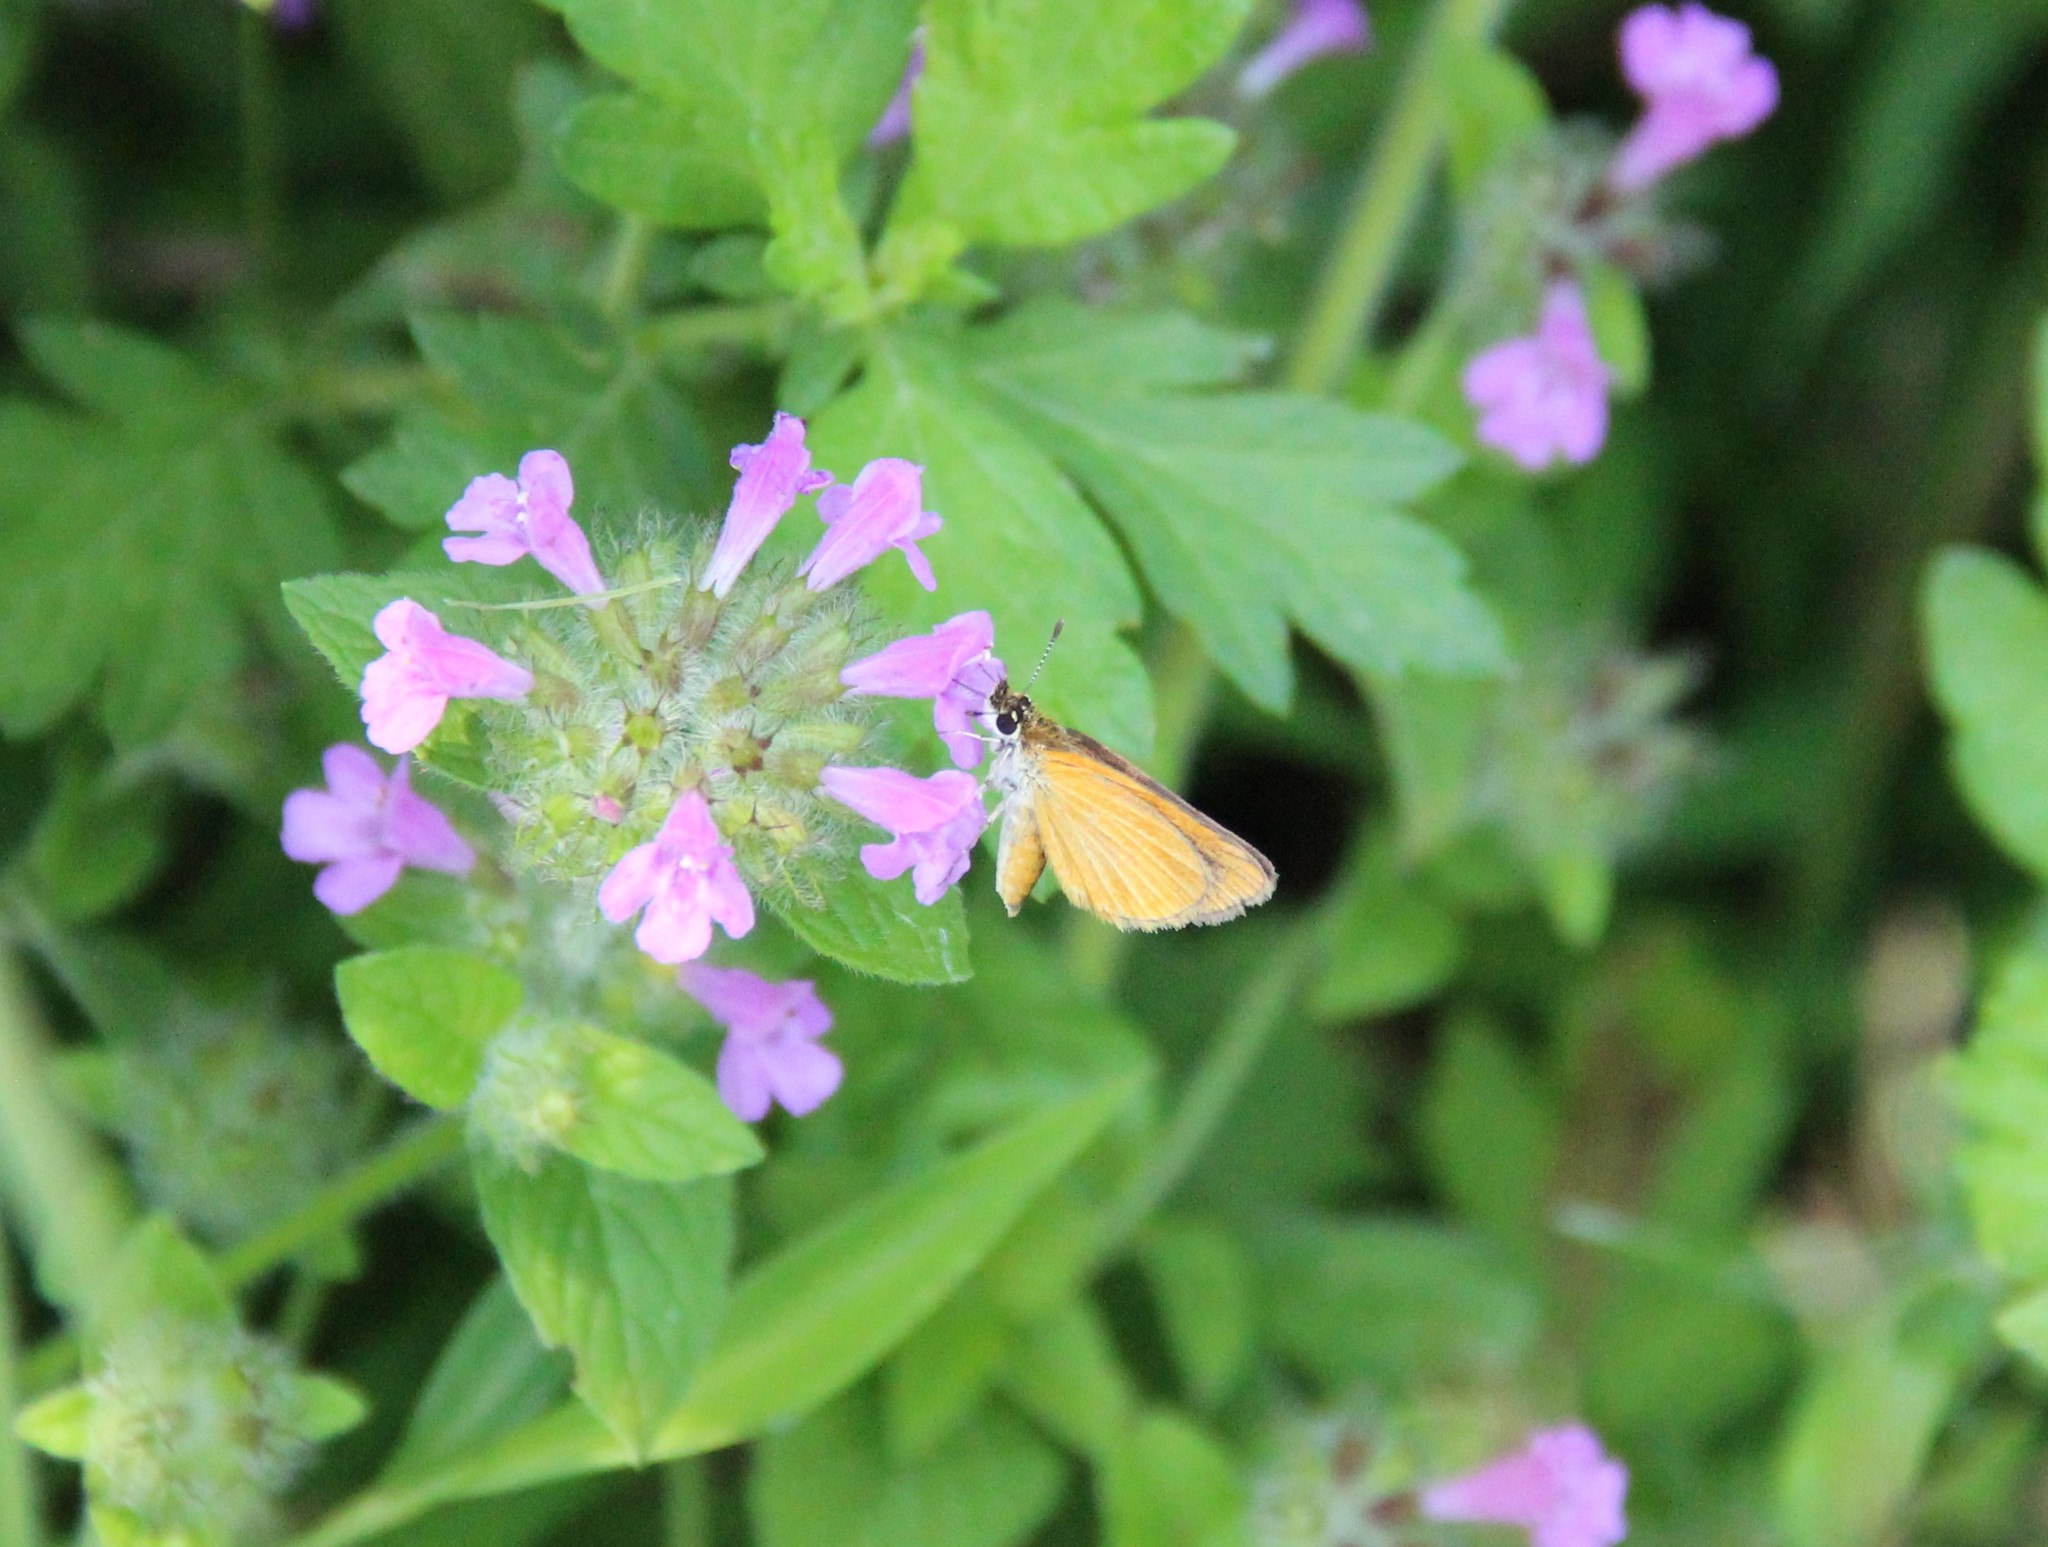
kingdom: Animalia
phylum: Arthropoda
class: Insecta
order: Lepidoptera
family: Hesperiidae
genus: Ancyloxypha
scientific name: Ancyloxypha numitor
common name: Least skipper
